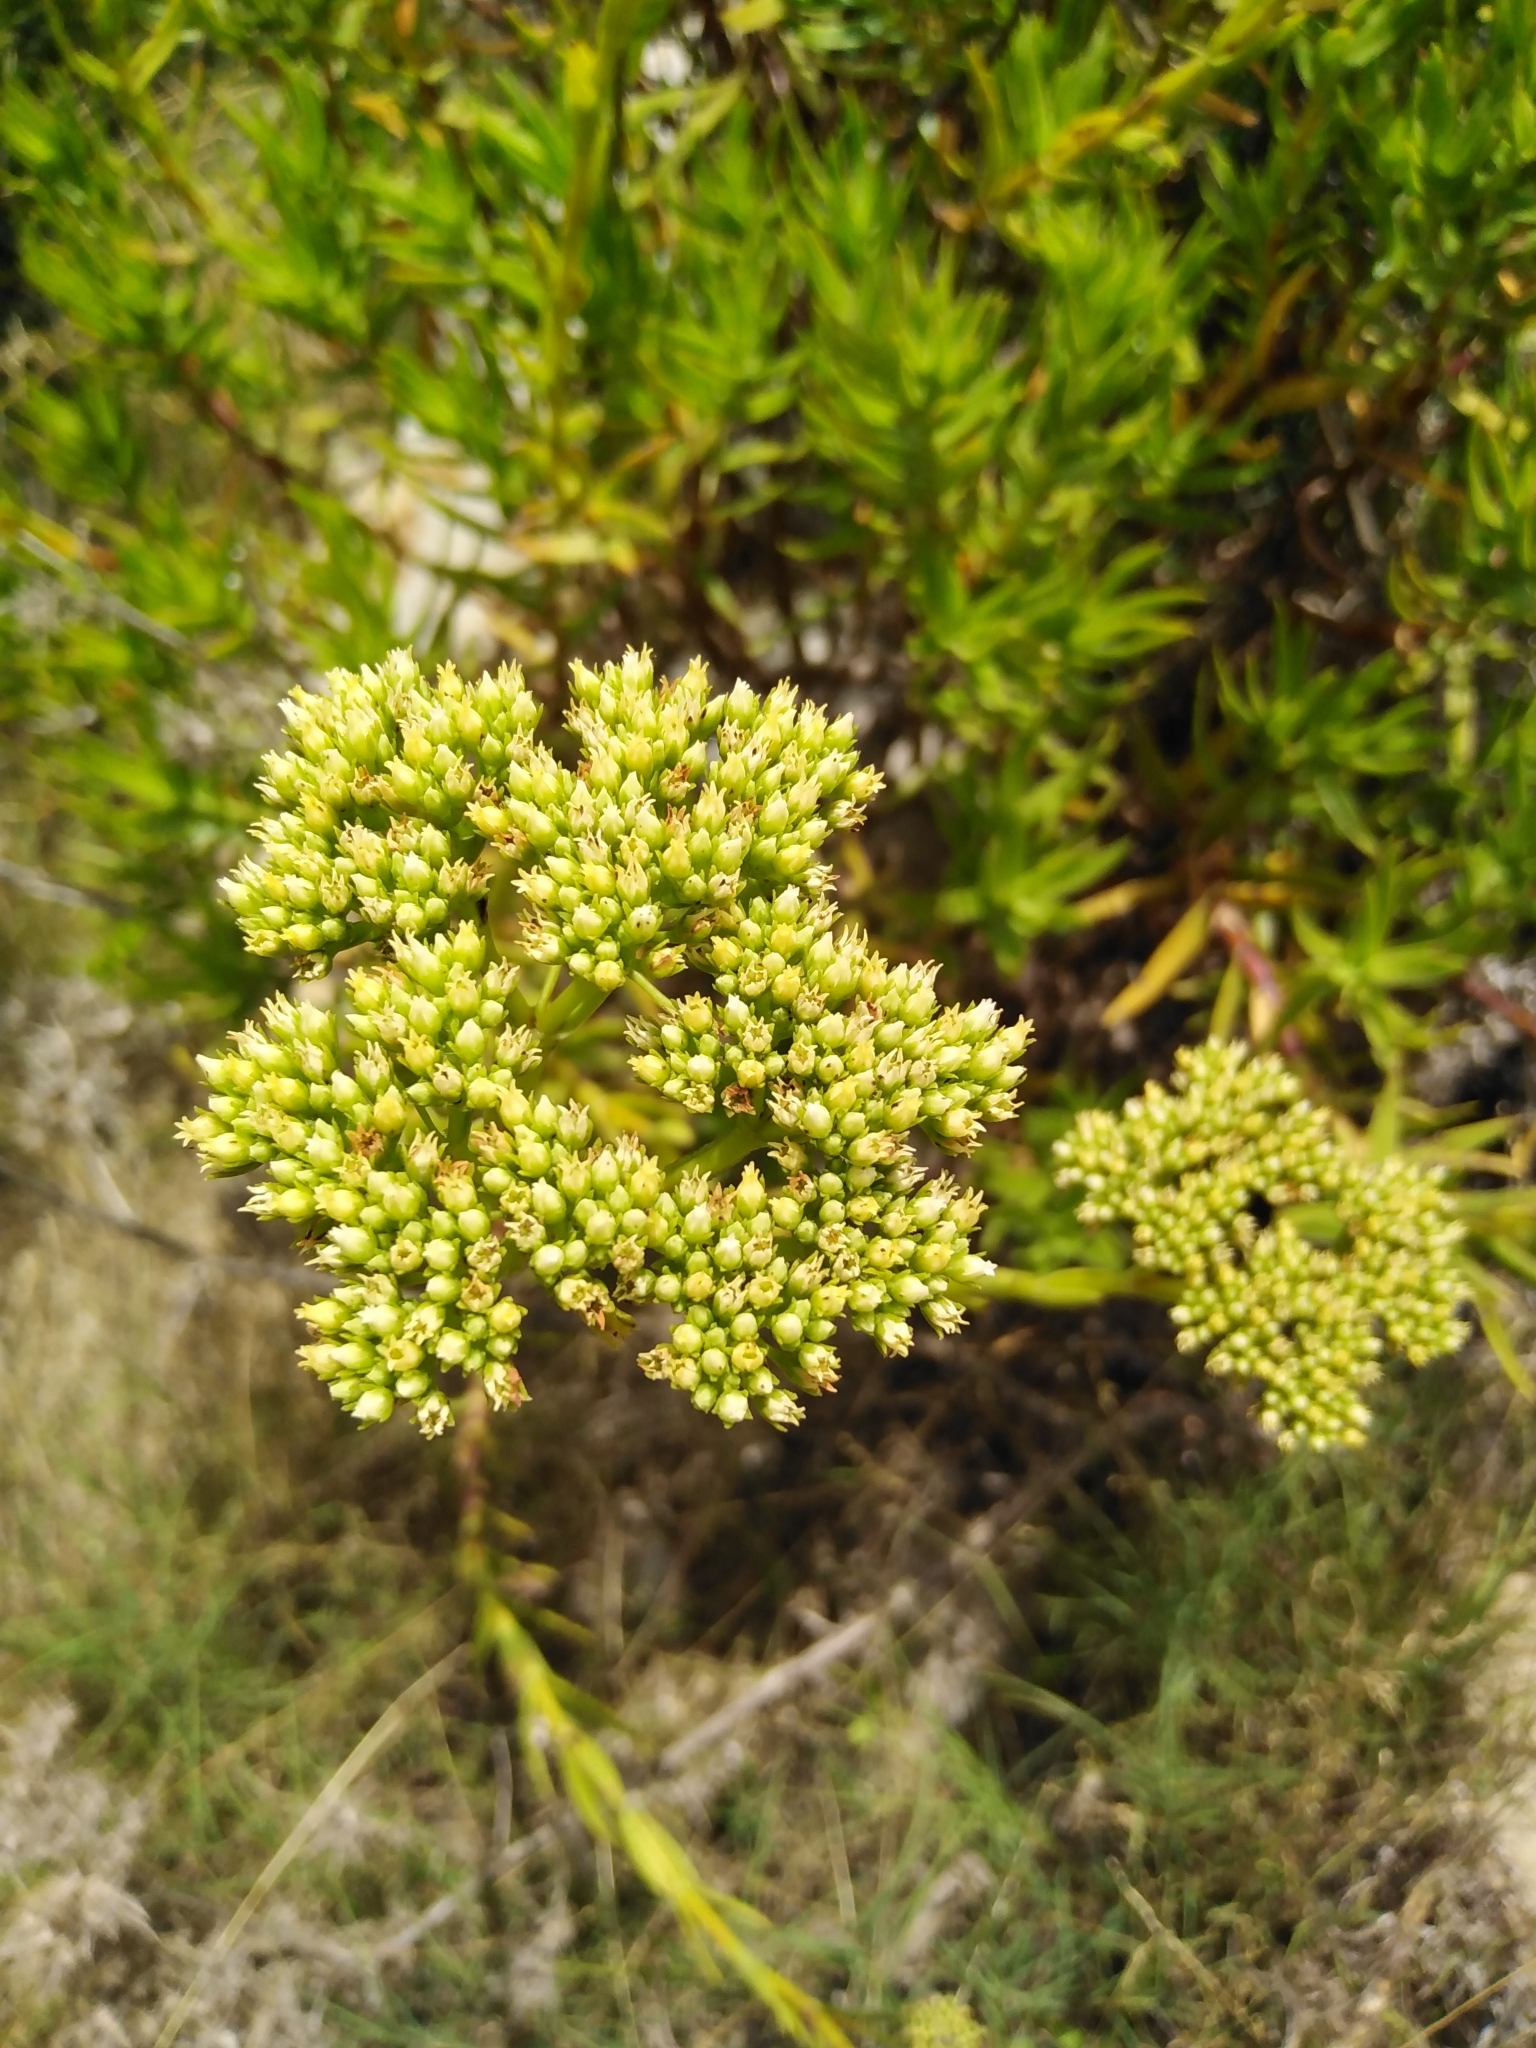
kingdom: Plantae
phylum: Tracheophyta
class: Magnoliopsida
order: Saxifragales
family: Crassulaceae
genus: Crassula
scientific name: Crassula multiflora
